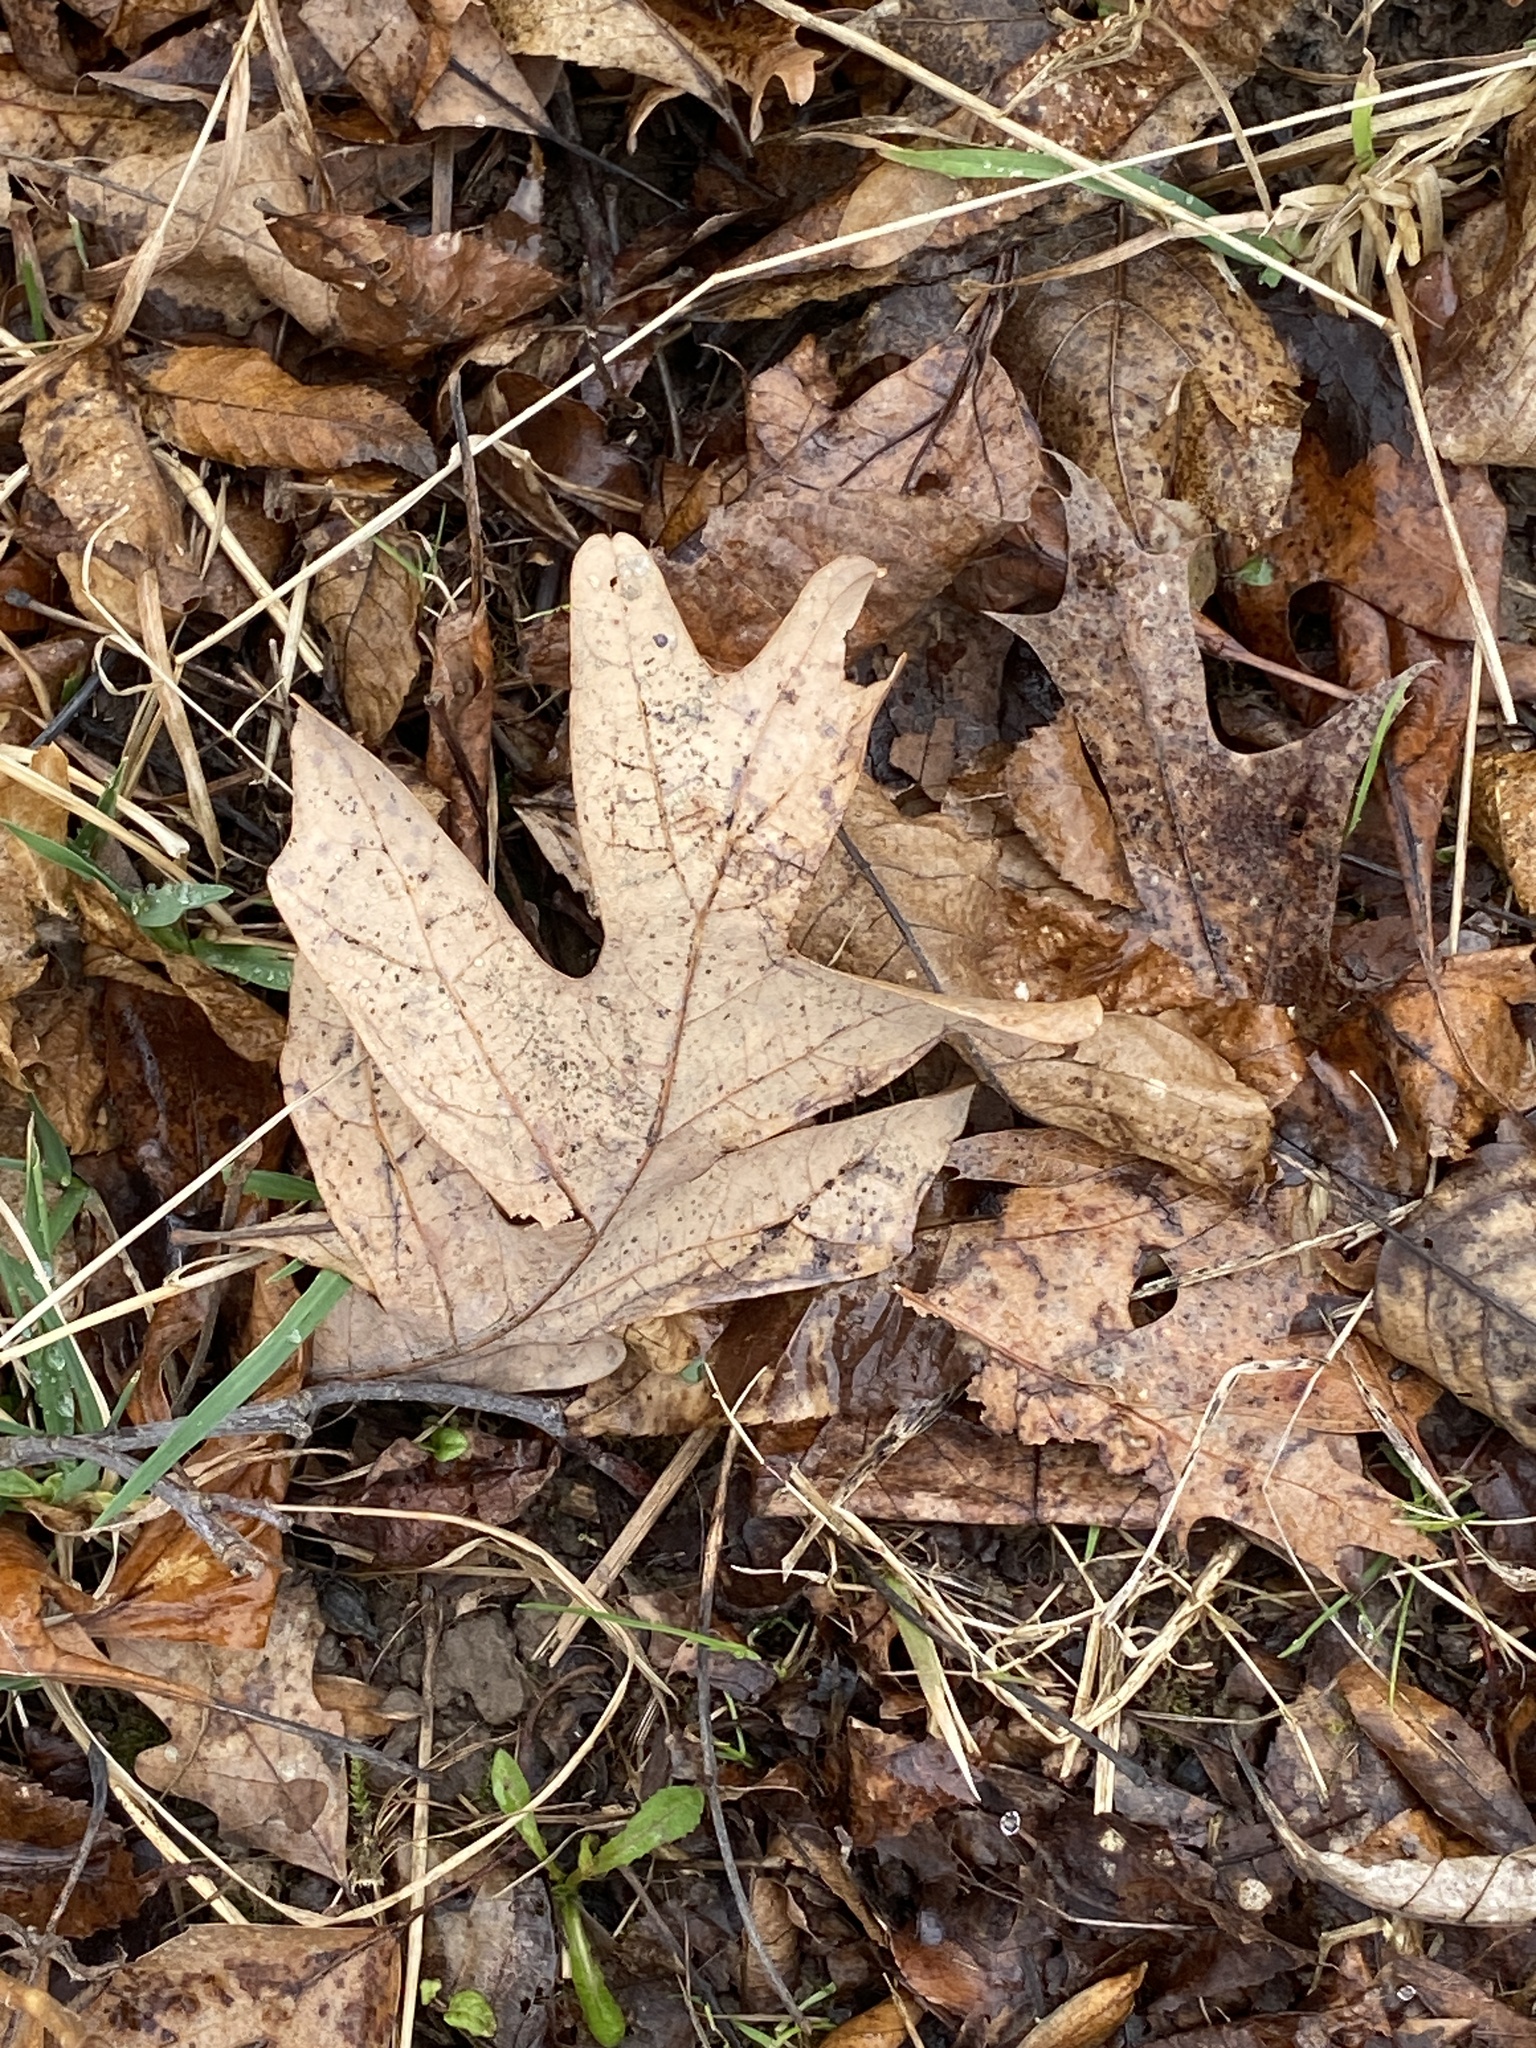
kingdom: Plantae
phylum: Tracheophyta
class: Magnoliopsida
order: Fagales
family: Fagaceae
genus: Quercus
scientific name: Quercus alba
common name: White oak
